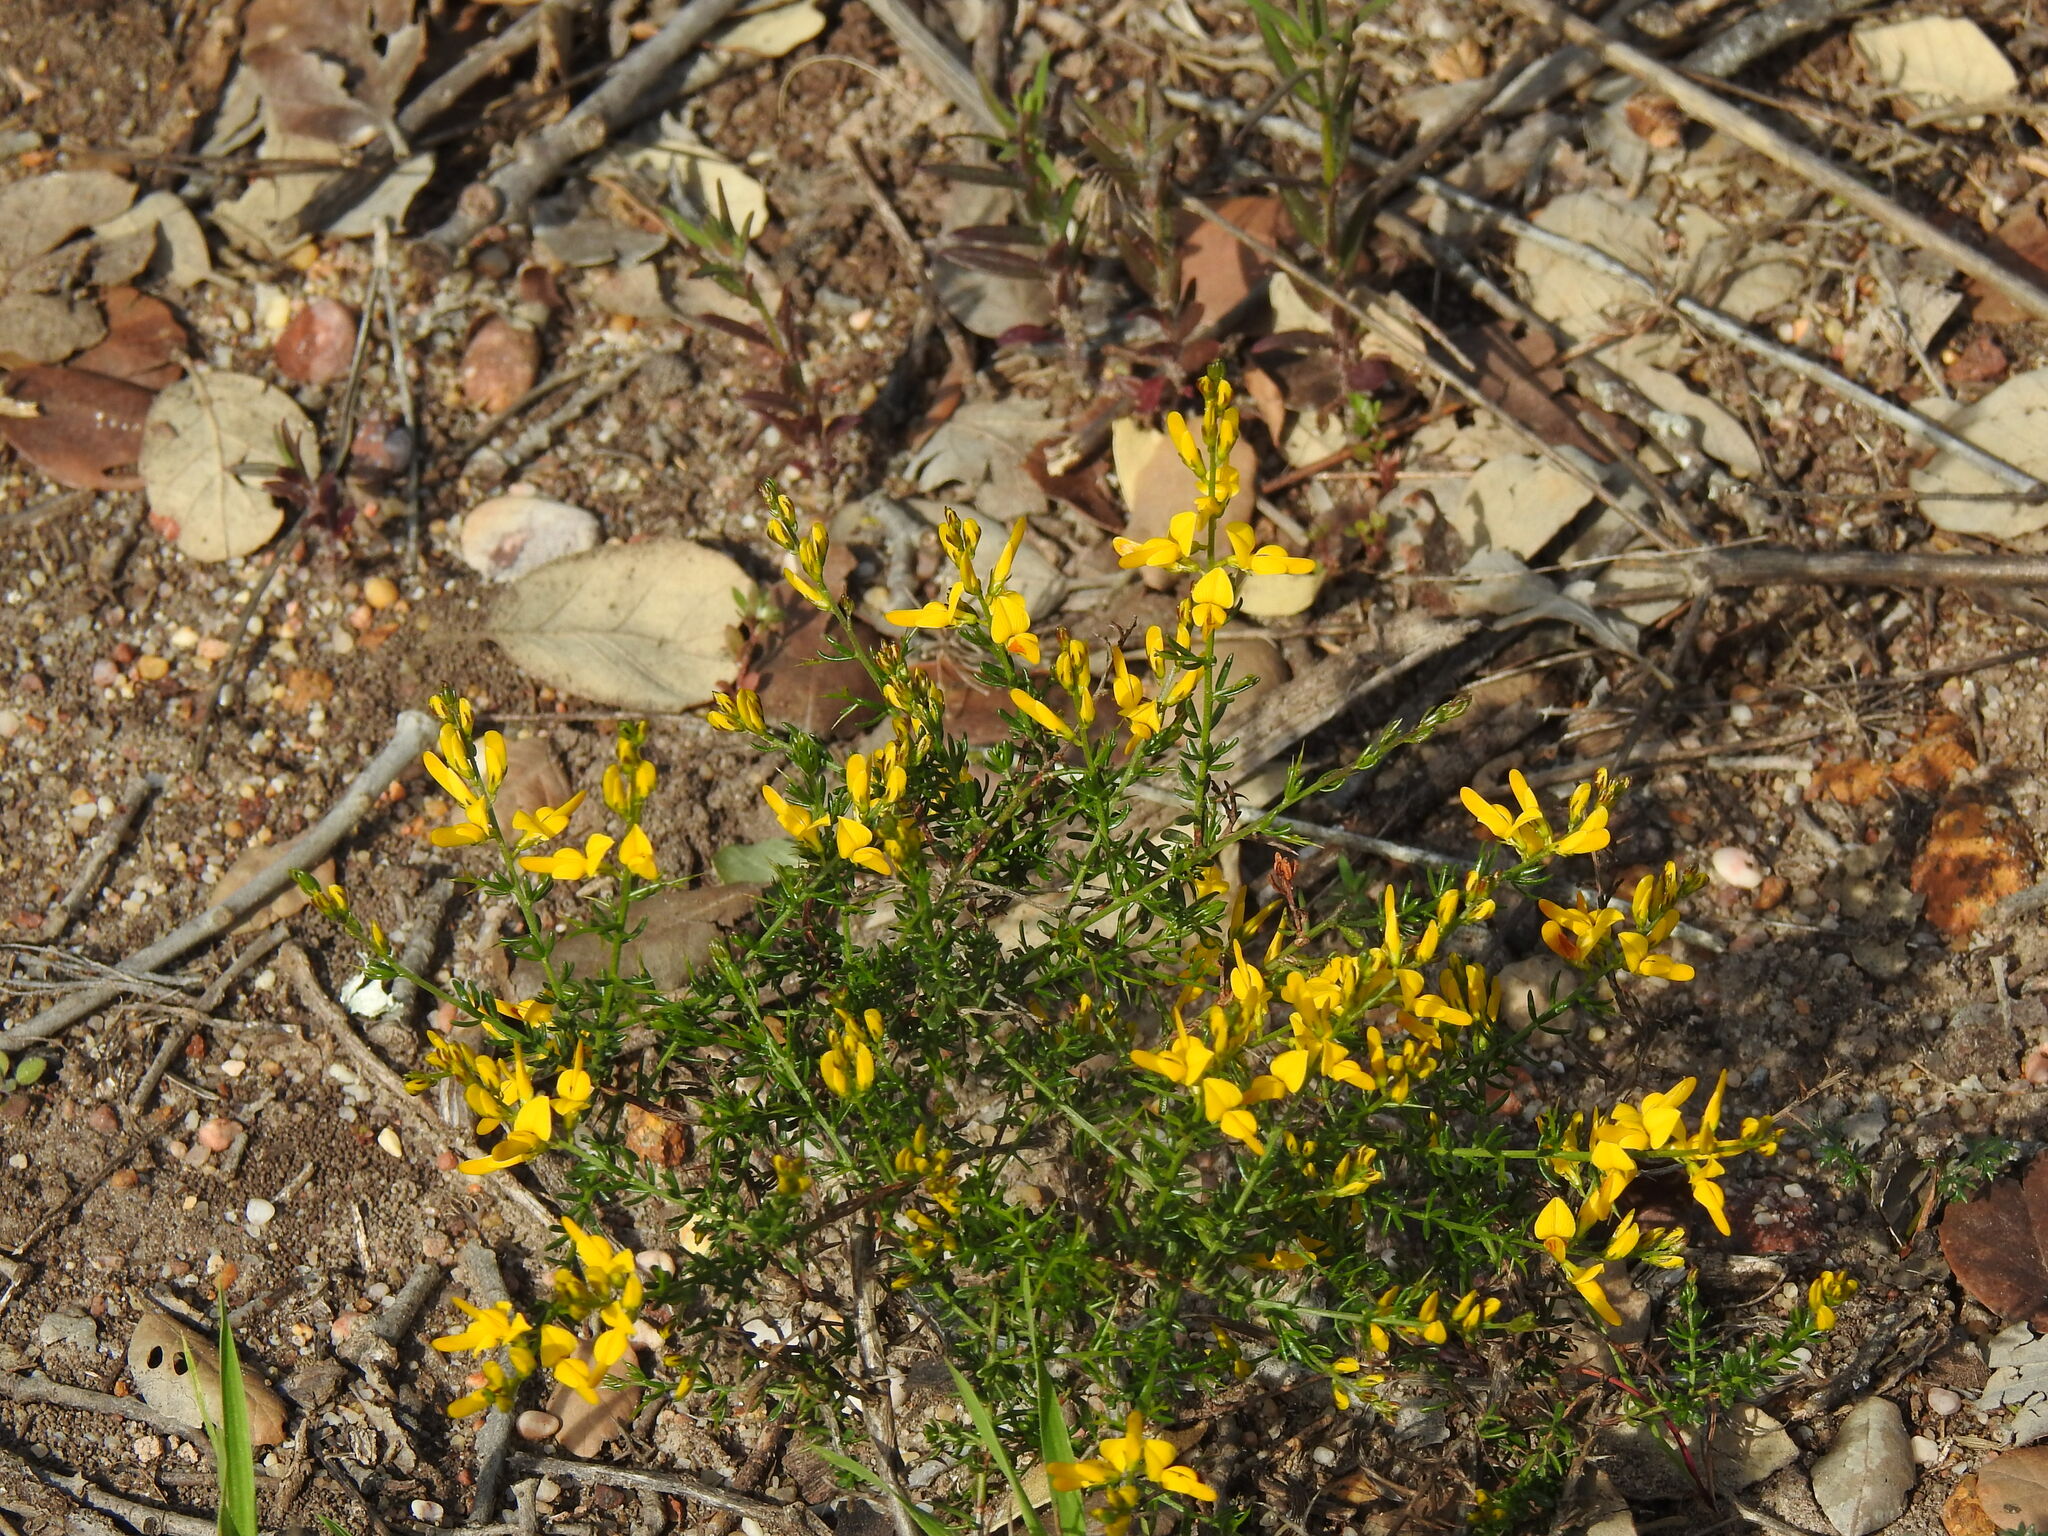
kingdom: Plantae
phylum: Tracheophyta
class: Magnoliopsida
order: Fabales
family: Fabaceae
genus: Genista
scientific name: Genista triacanthos
